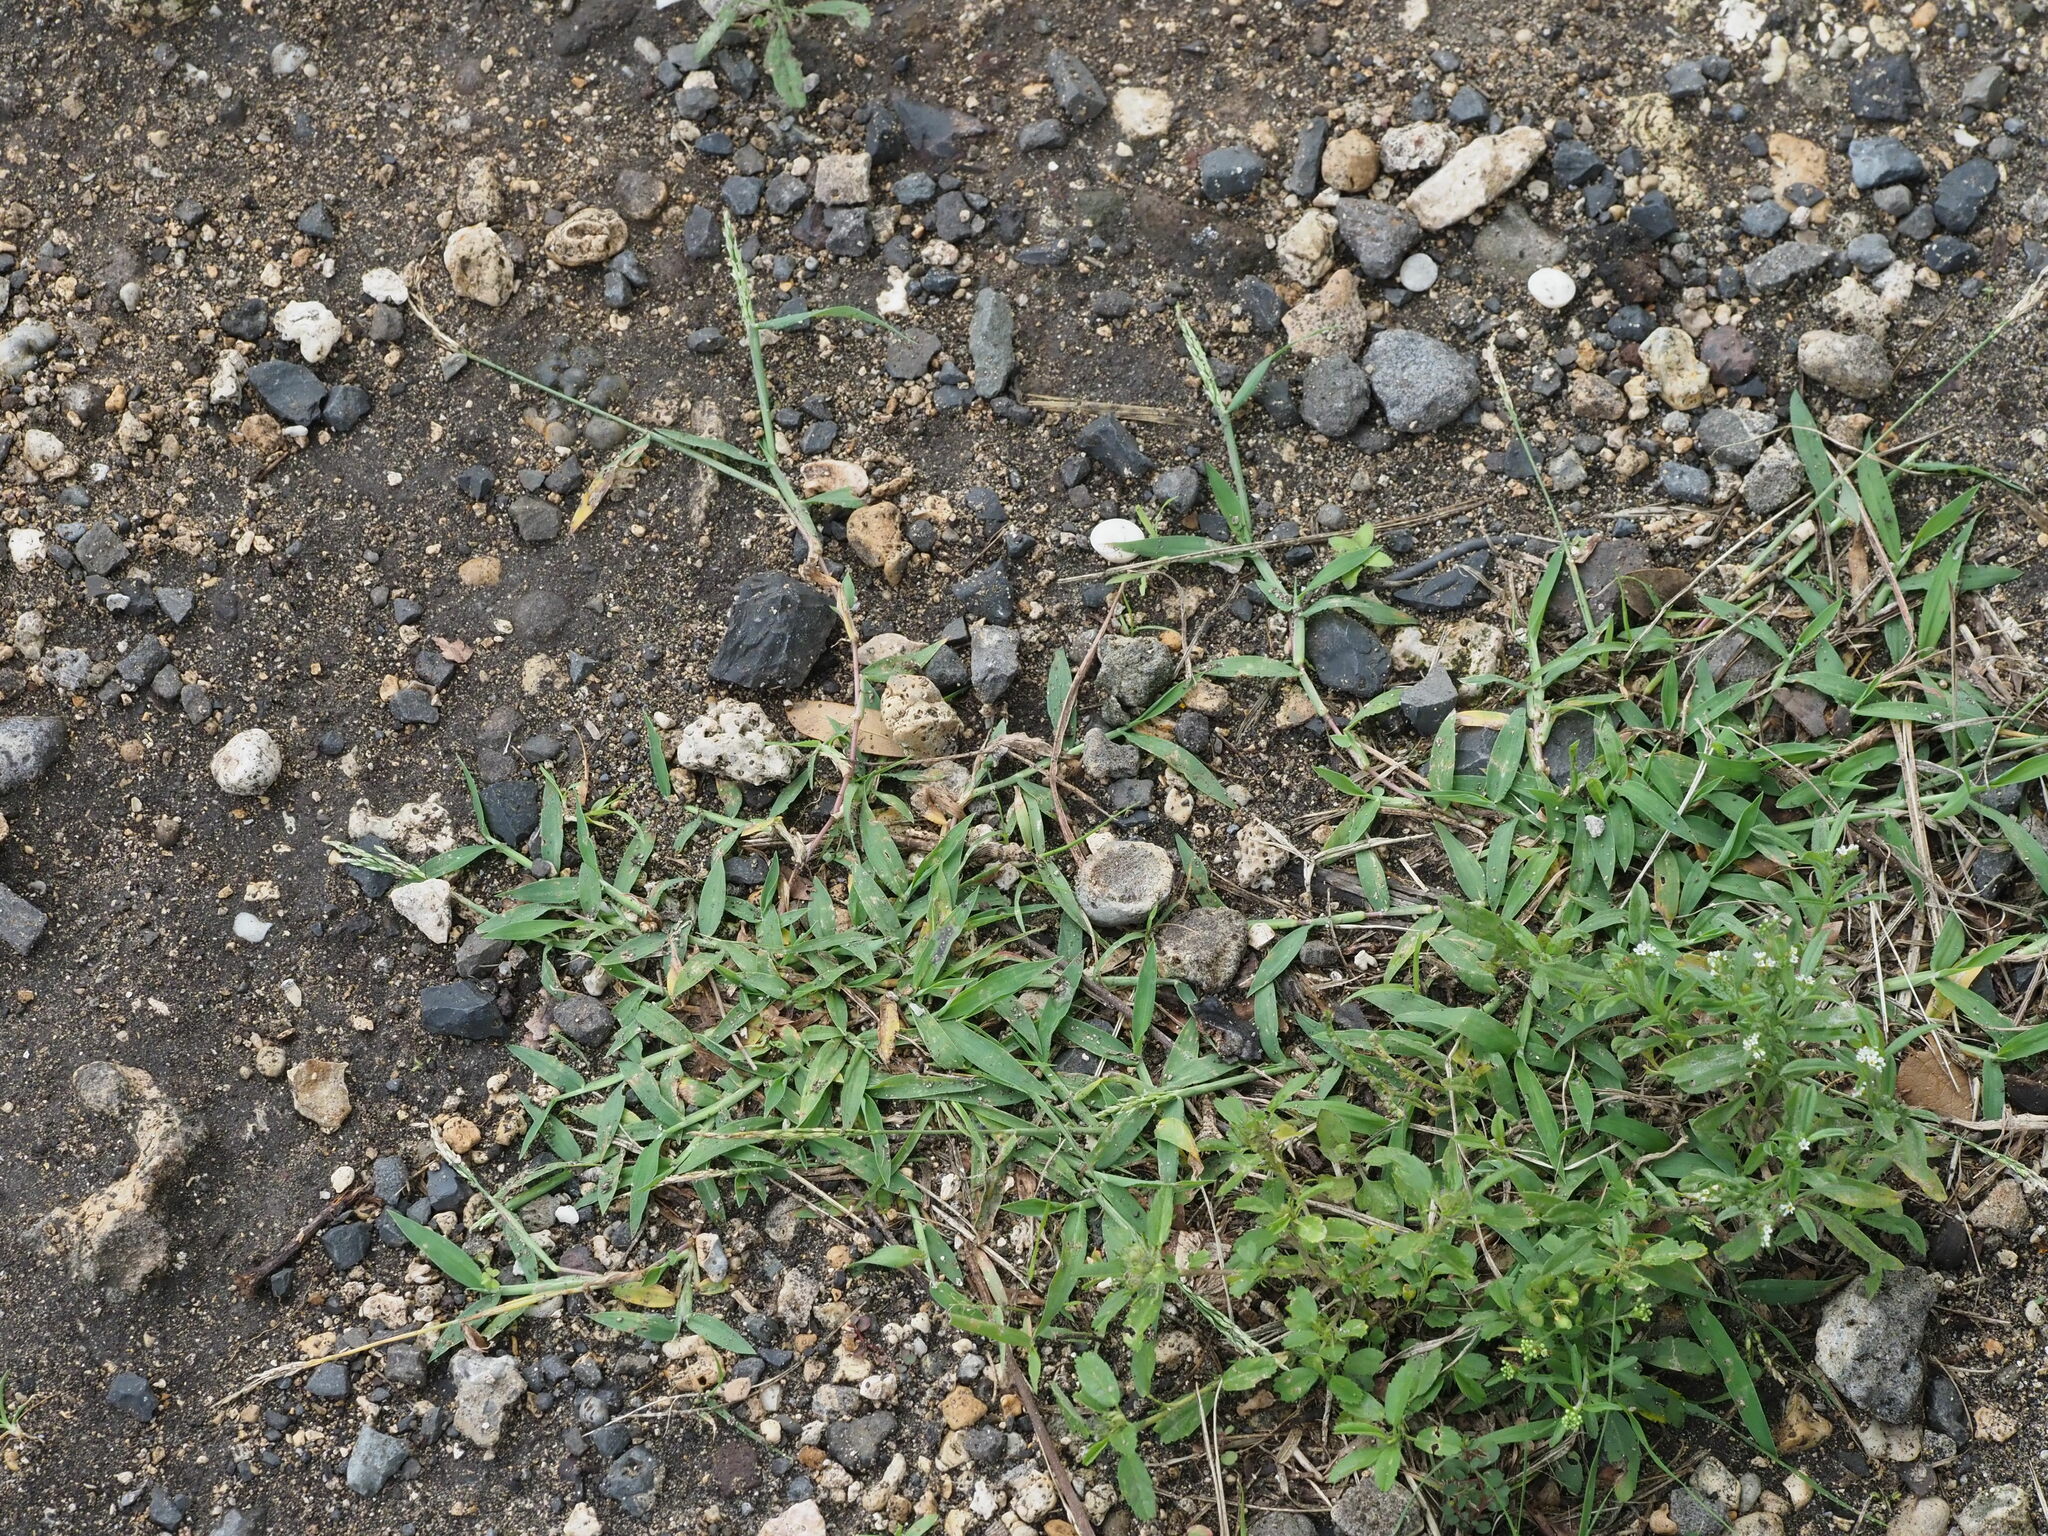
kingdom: Plantae
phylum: Tracheophyta
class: Liliopsida
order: Poales
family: Poaceae
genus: Digitaria
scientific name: Digitaria ciliaris
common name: Tropical finger-grass
